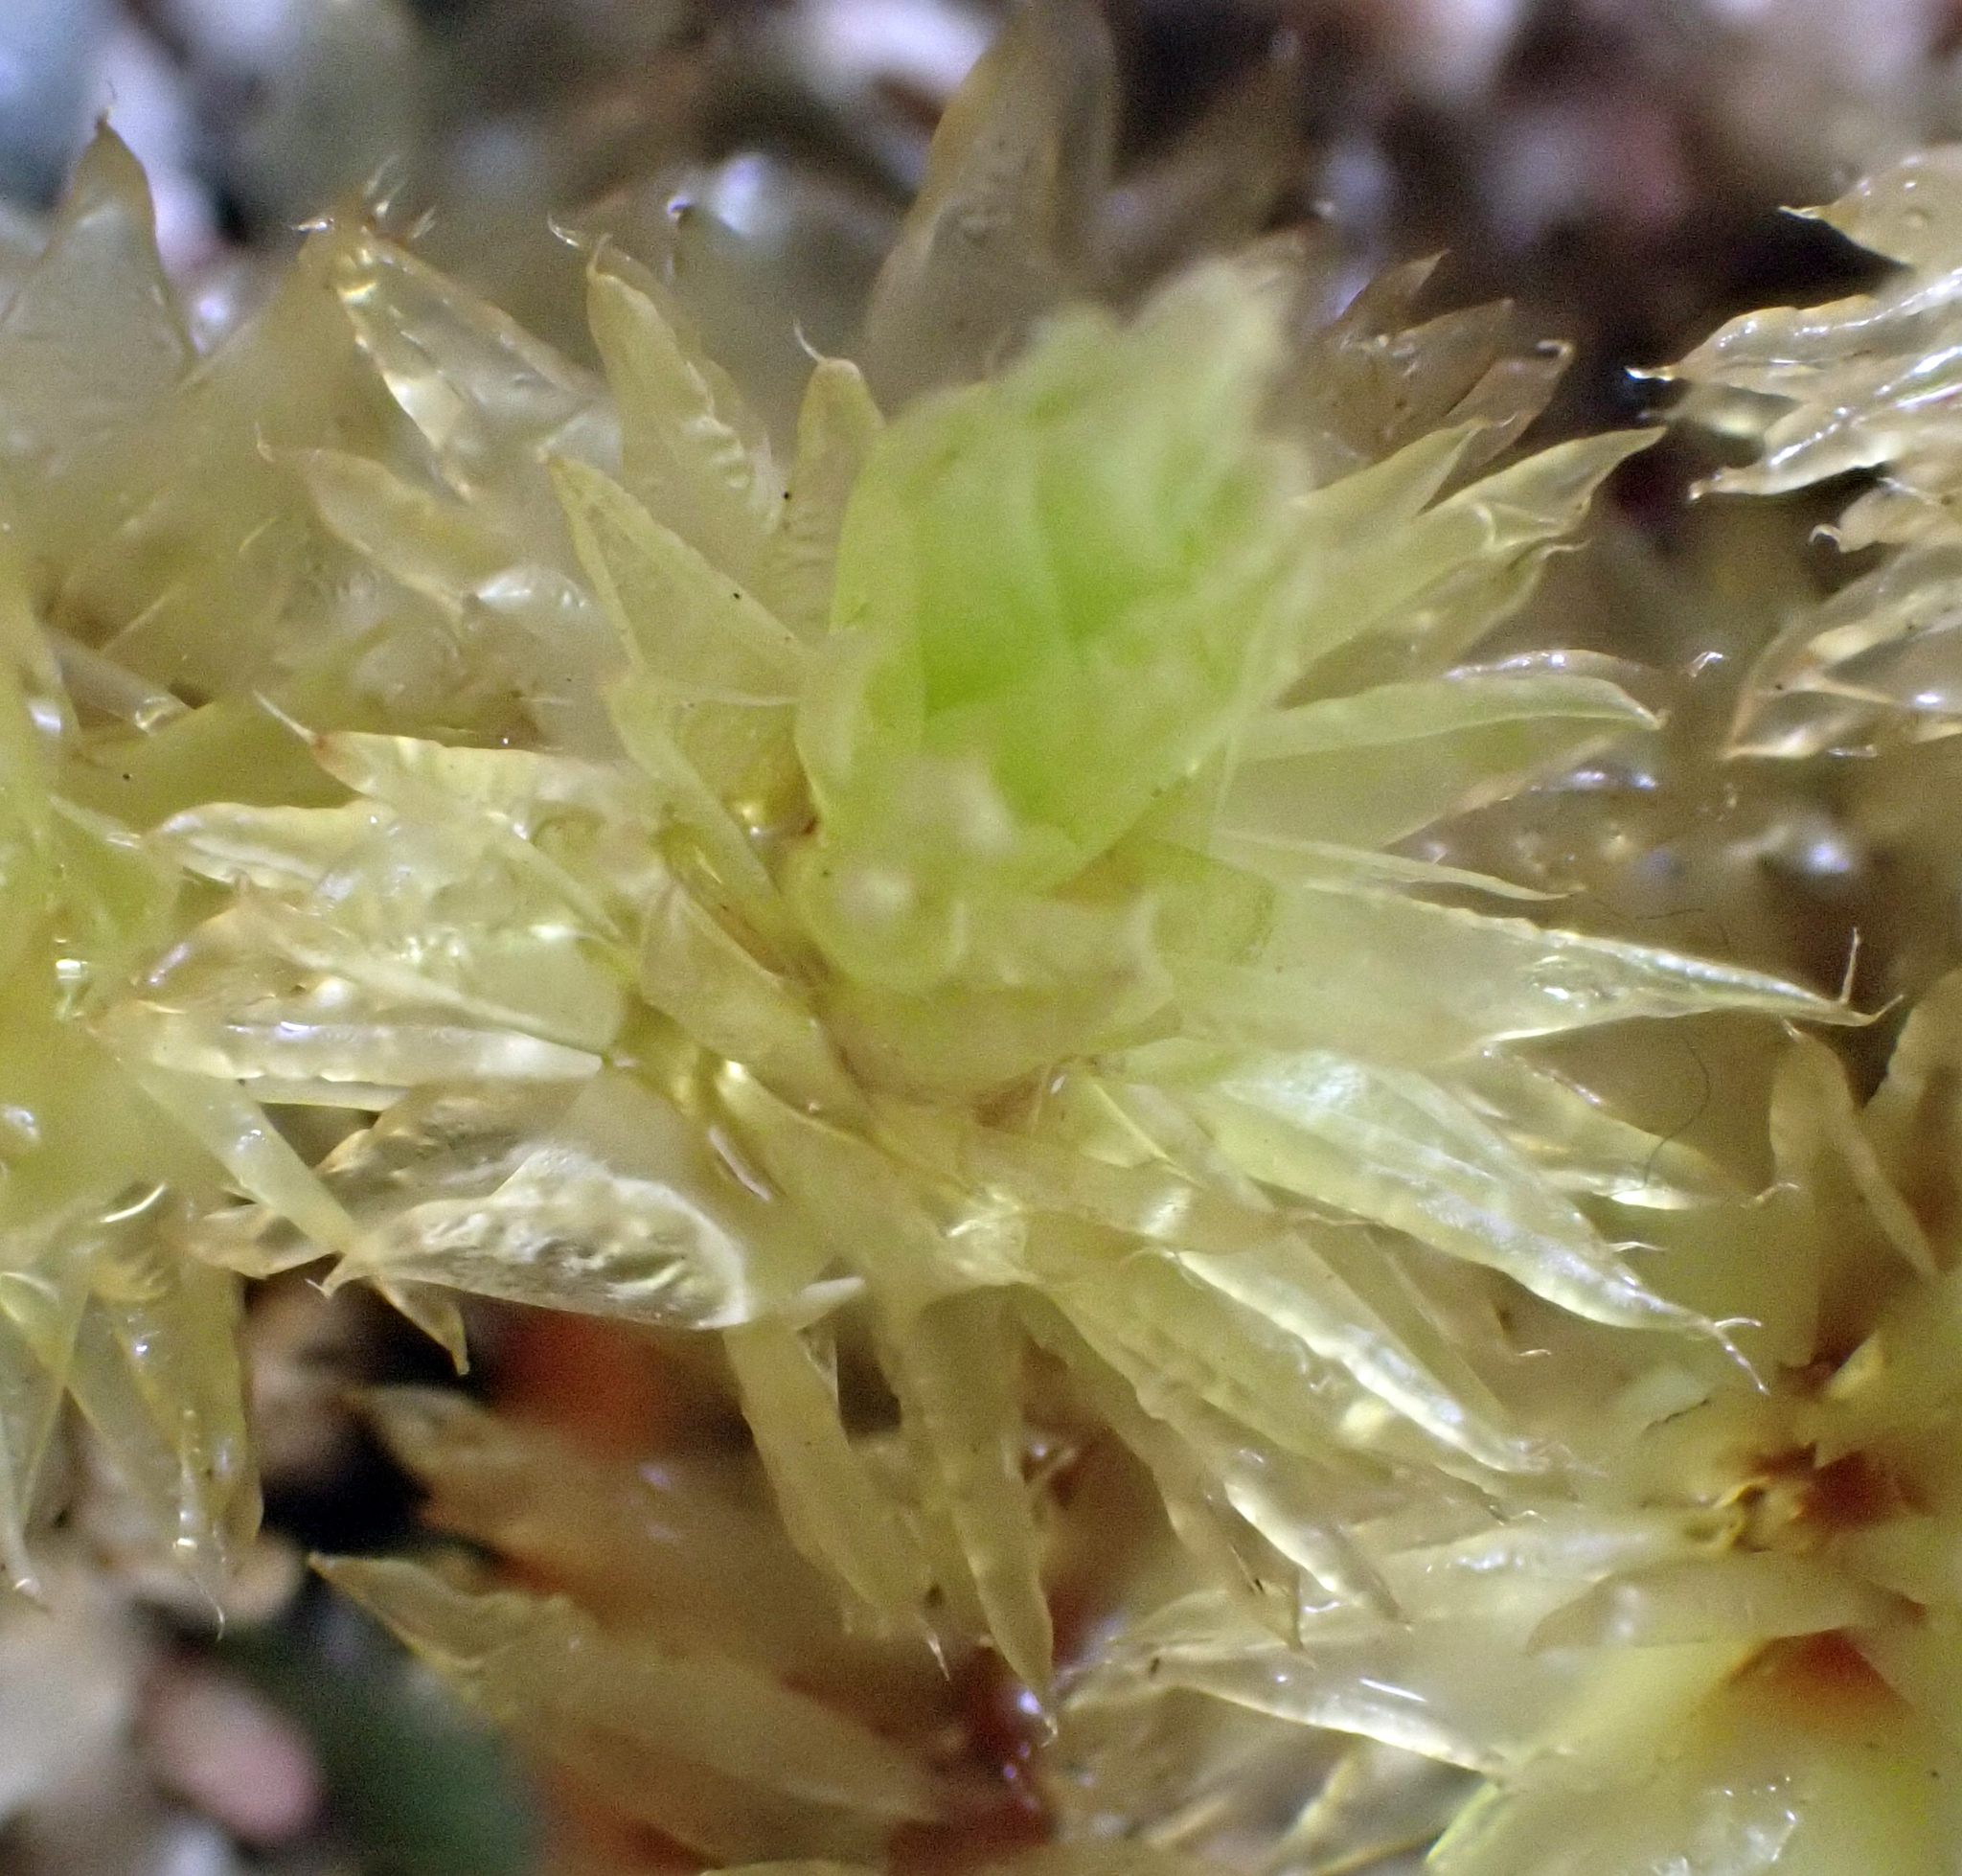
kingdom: Plantae
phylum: Bryophyta
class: Bryopsida
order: Bryales
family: Pulchrinodaceae
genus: Pulchrinodus
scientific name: Pulchrinodus inflatus
